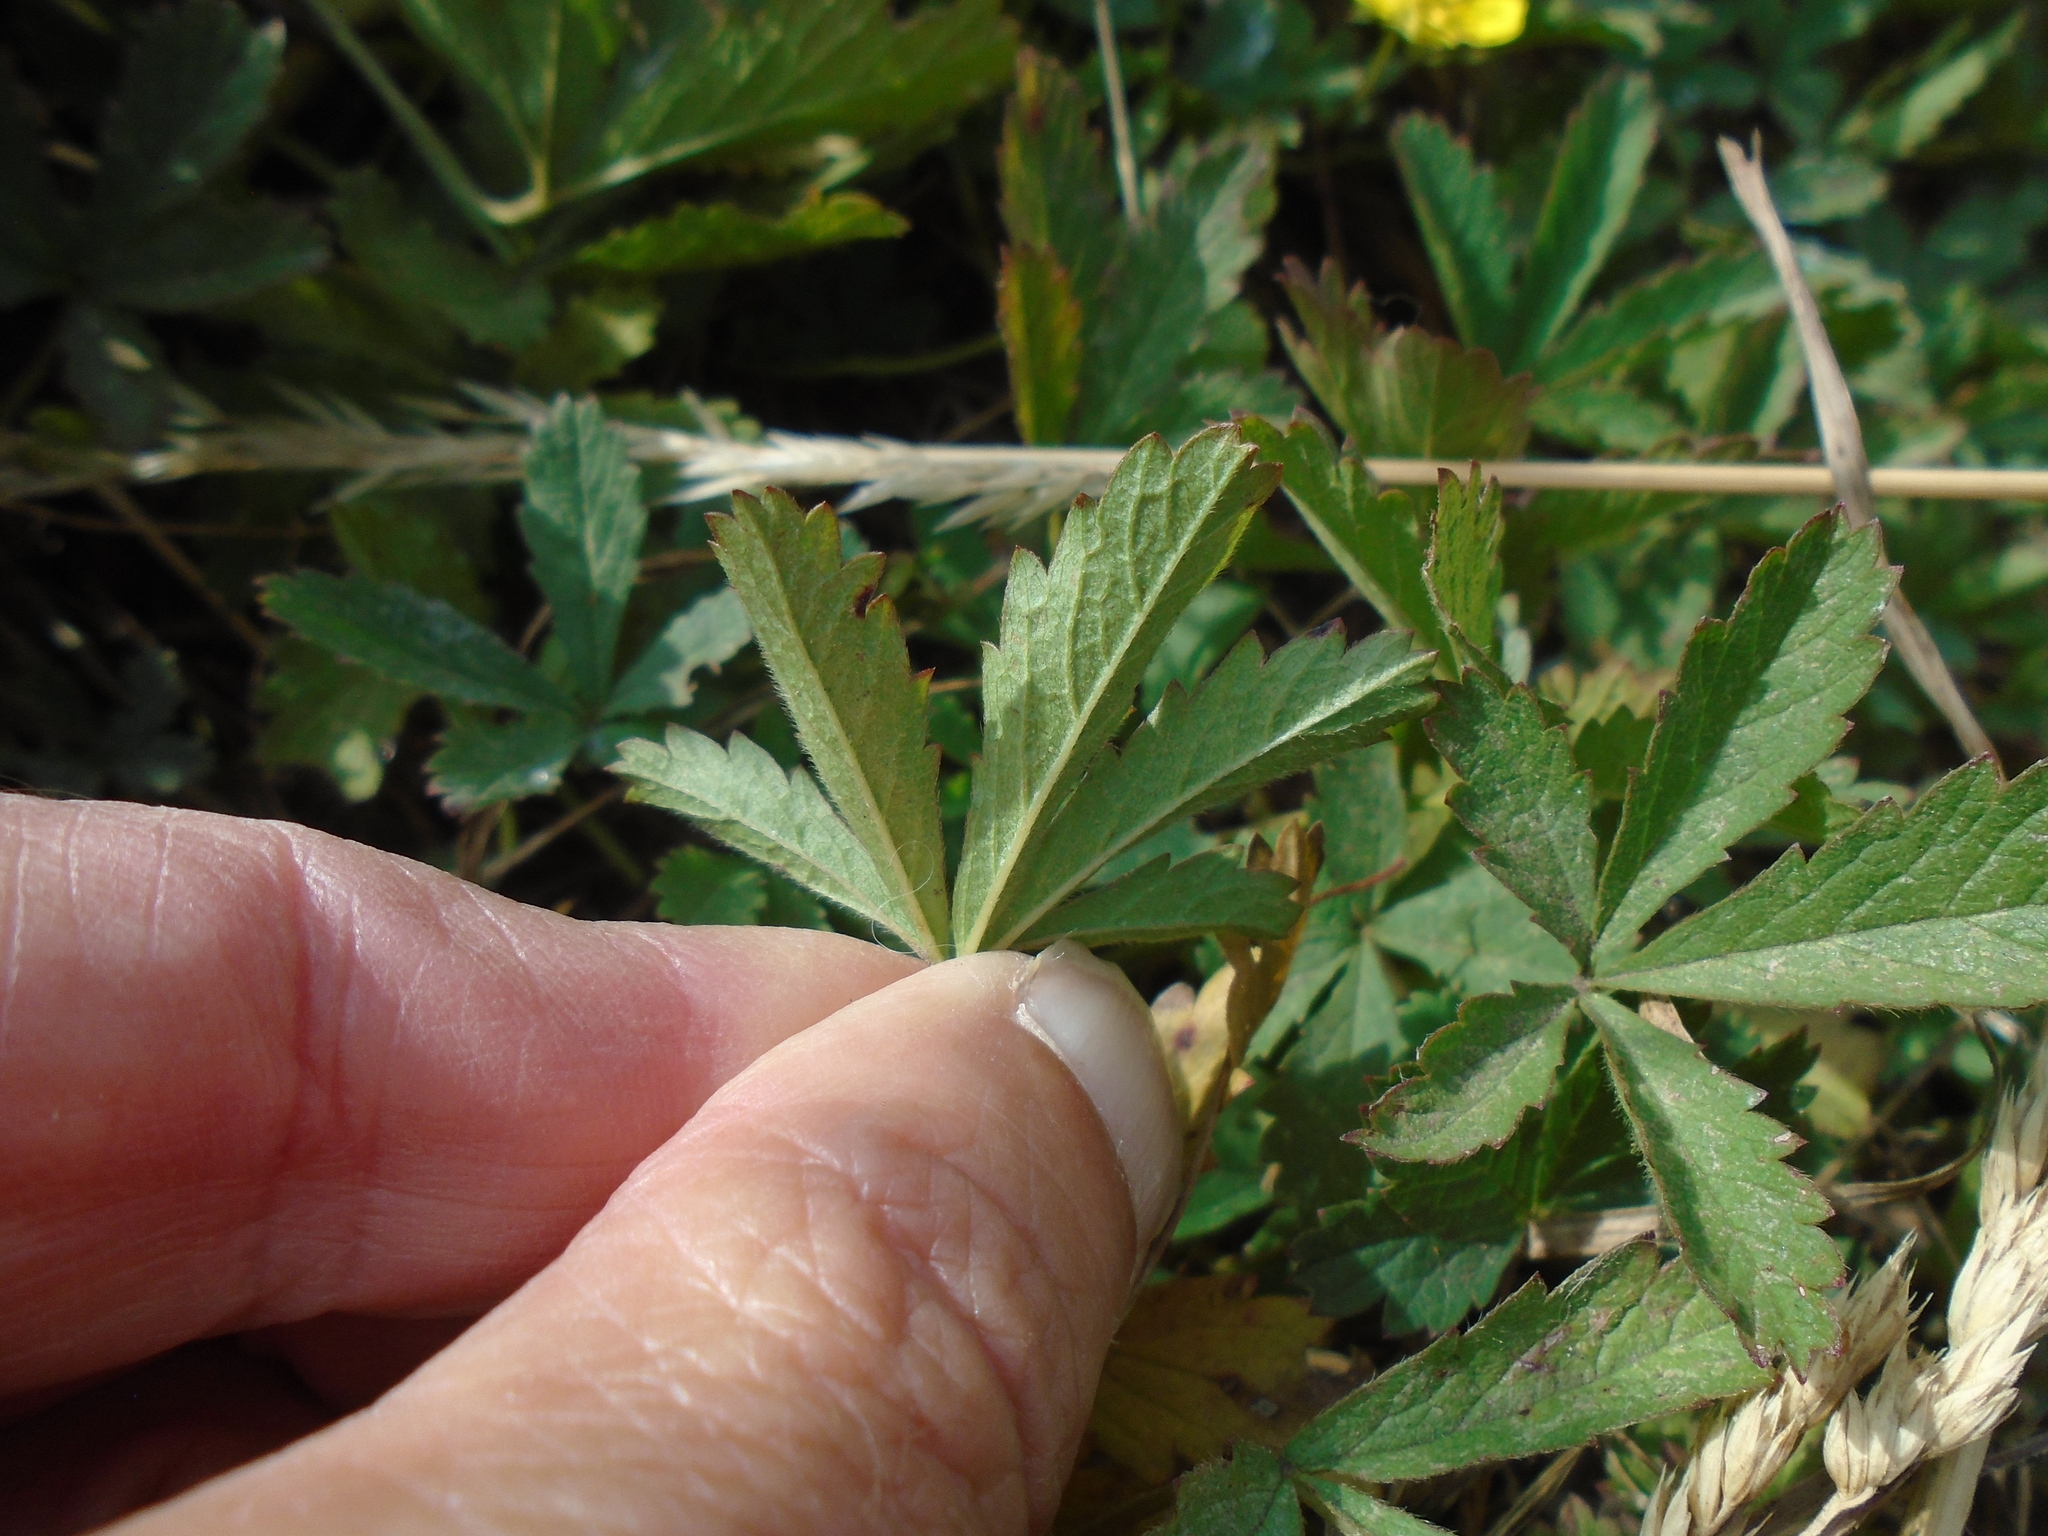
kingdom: Plantae
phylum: Tracheophyta
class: Magnoliopsida
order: Rosales
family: Rosaceae
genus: Potentilla
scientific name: Potentilla reptans
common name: Creeping cinquefoil
